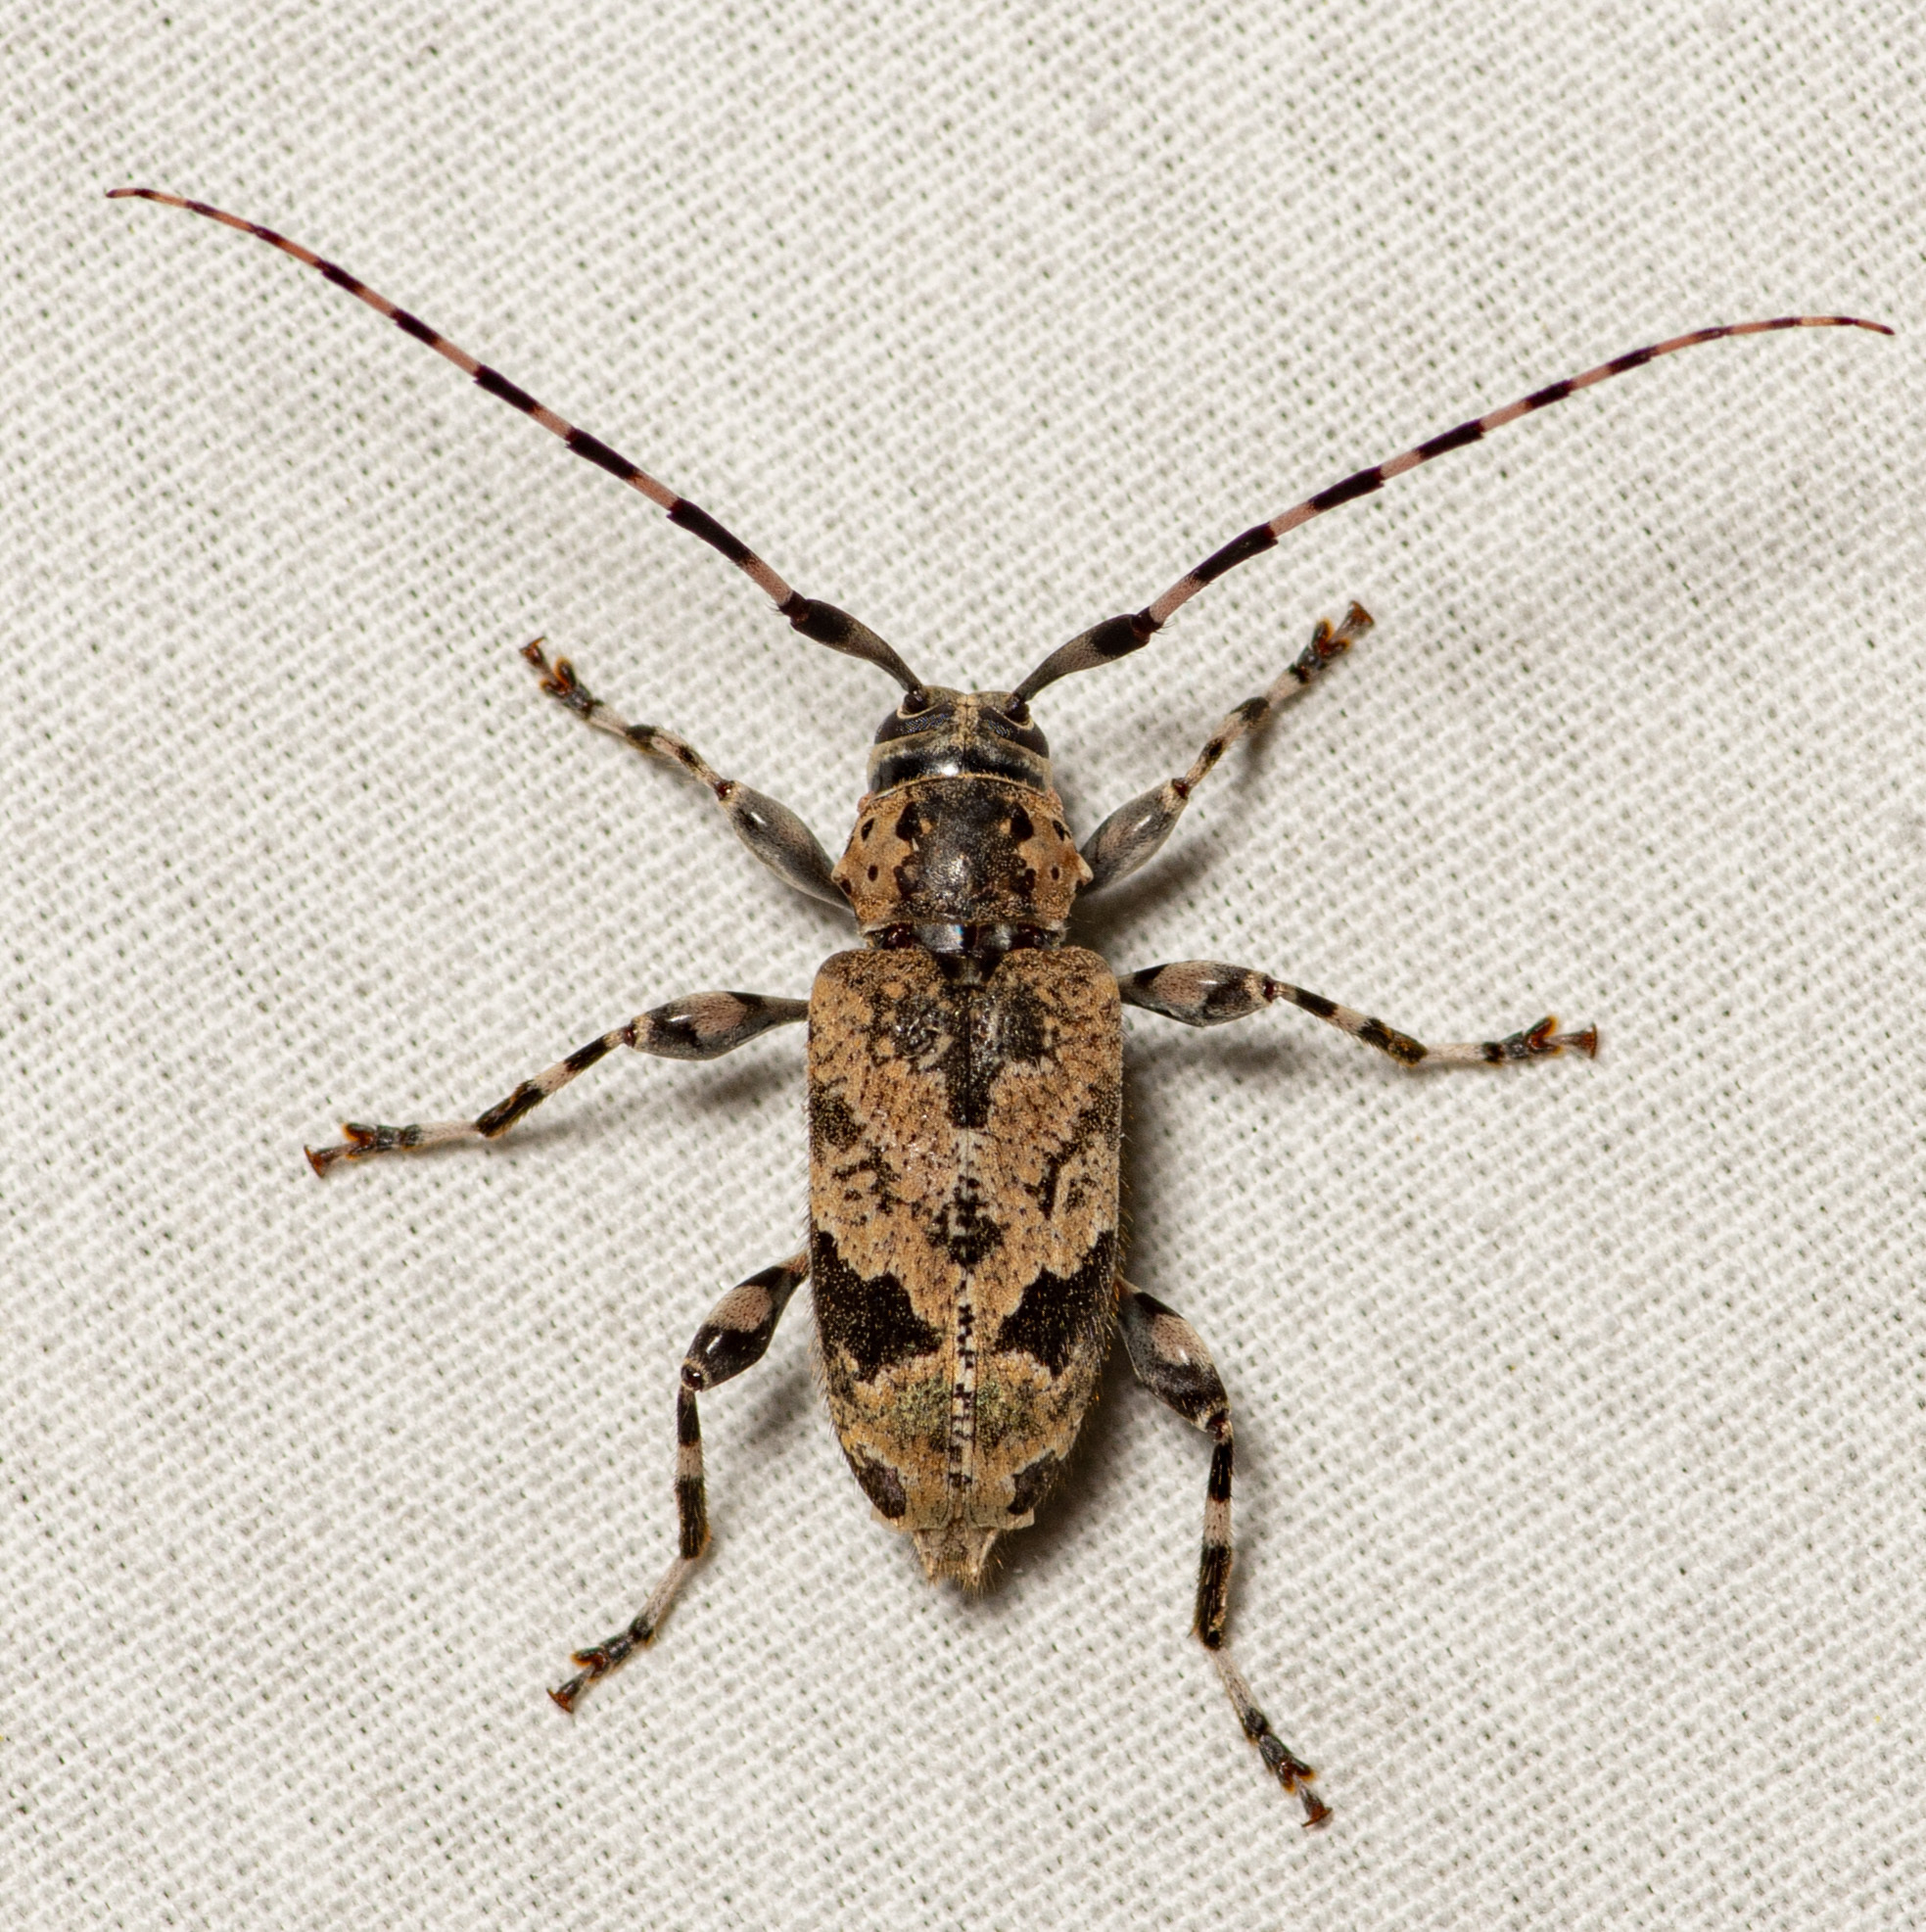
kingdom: Animalia
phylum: Arthropoda
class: Insecta
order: Coleoptera
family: Cerambycidae
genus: Graphisurus
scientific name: Graphisurus triangulifer
